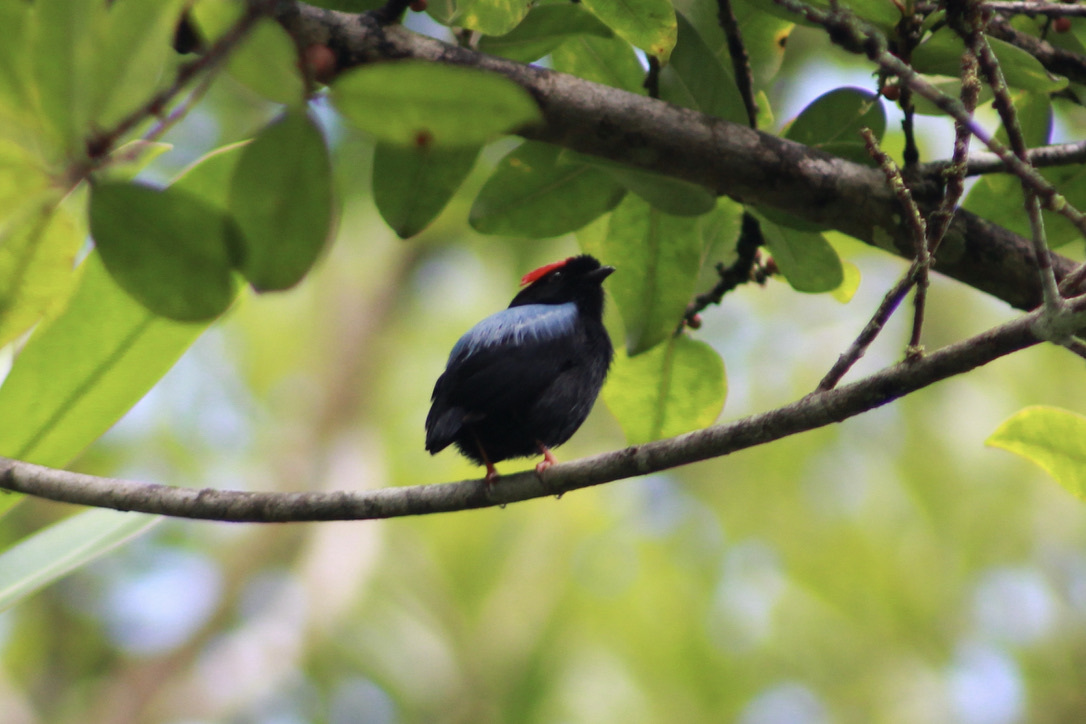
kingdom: Animalia
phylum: Chordata
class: Aves
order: Passeriformes
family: Pipridae
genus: Chiroxiphia
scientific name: Chiroxiphia pareola
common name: Blue-backed manakin
